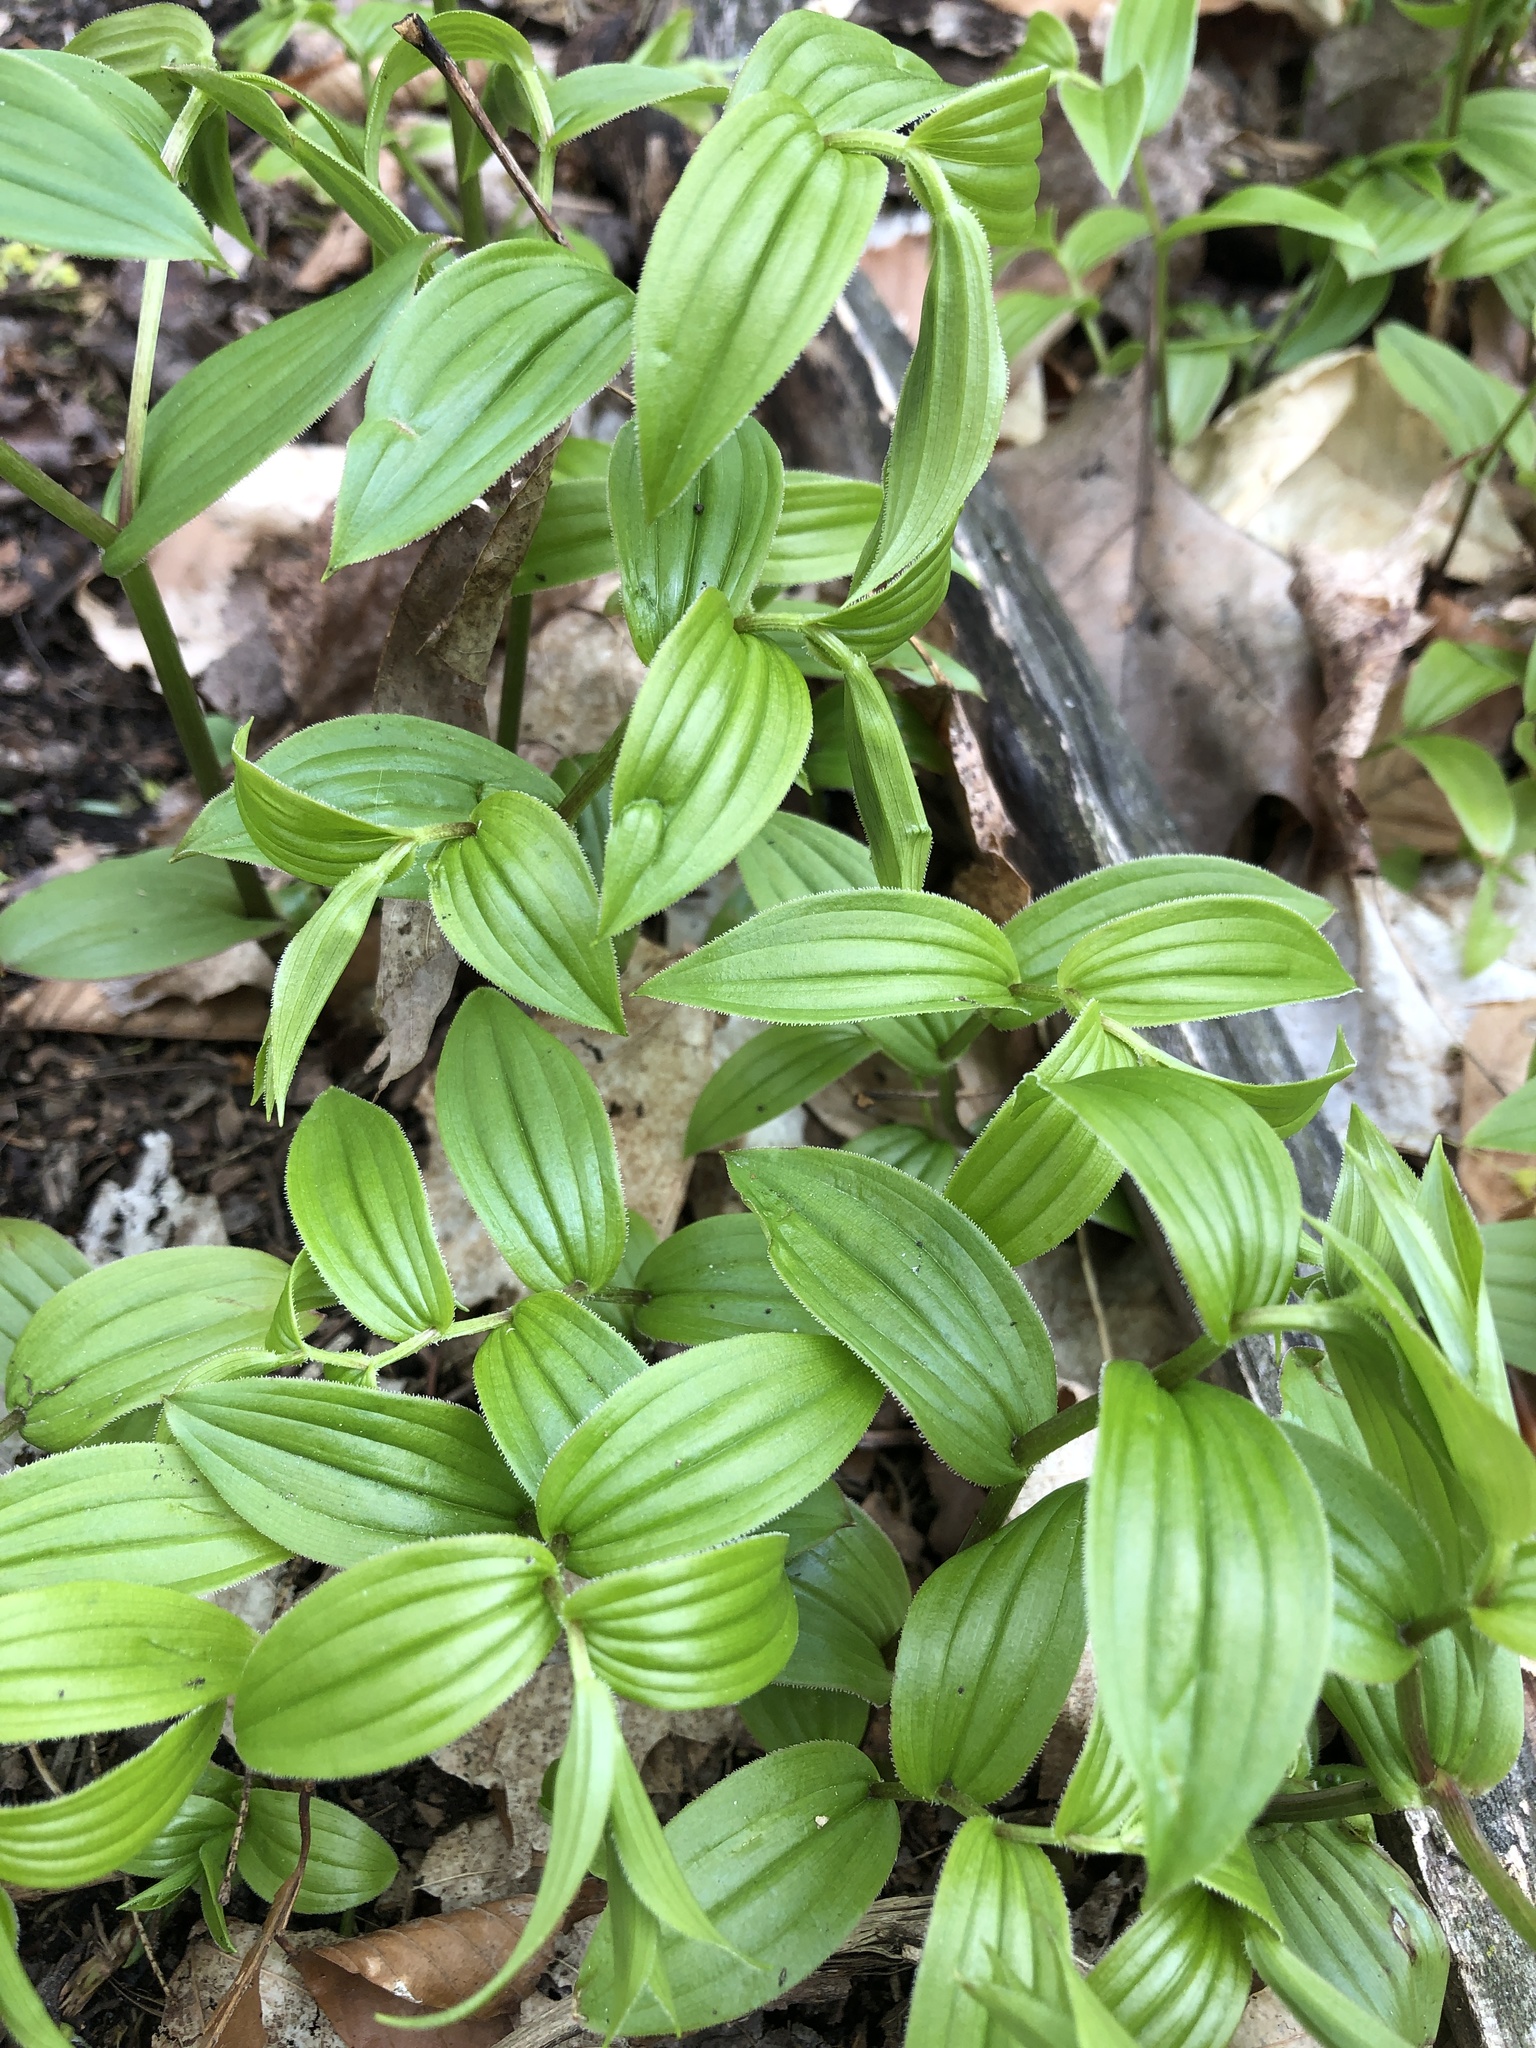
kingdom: Plantae
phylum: Tracheophyta
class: Liliopsida
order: Liliales
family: Liliaceae
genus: Streptopus
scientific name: Streptopus lanceolatus
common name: Rose mandarin
